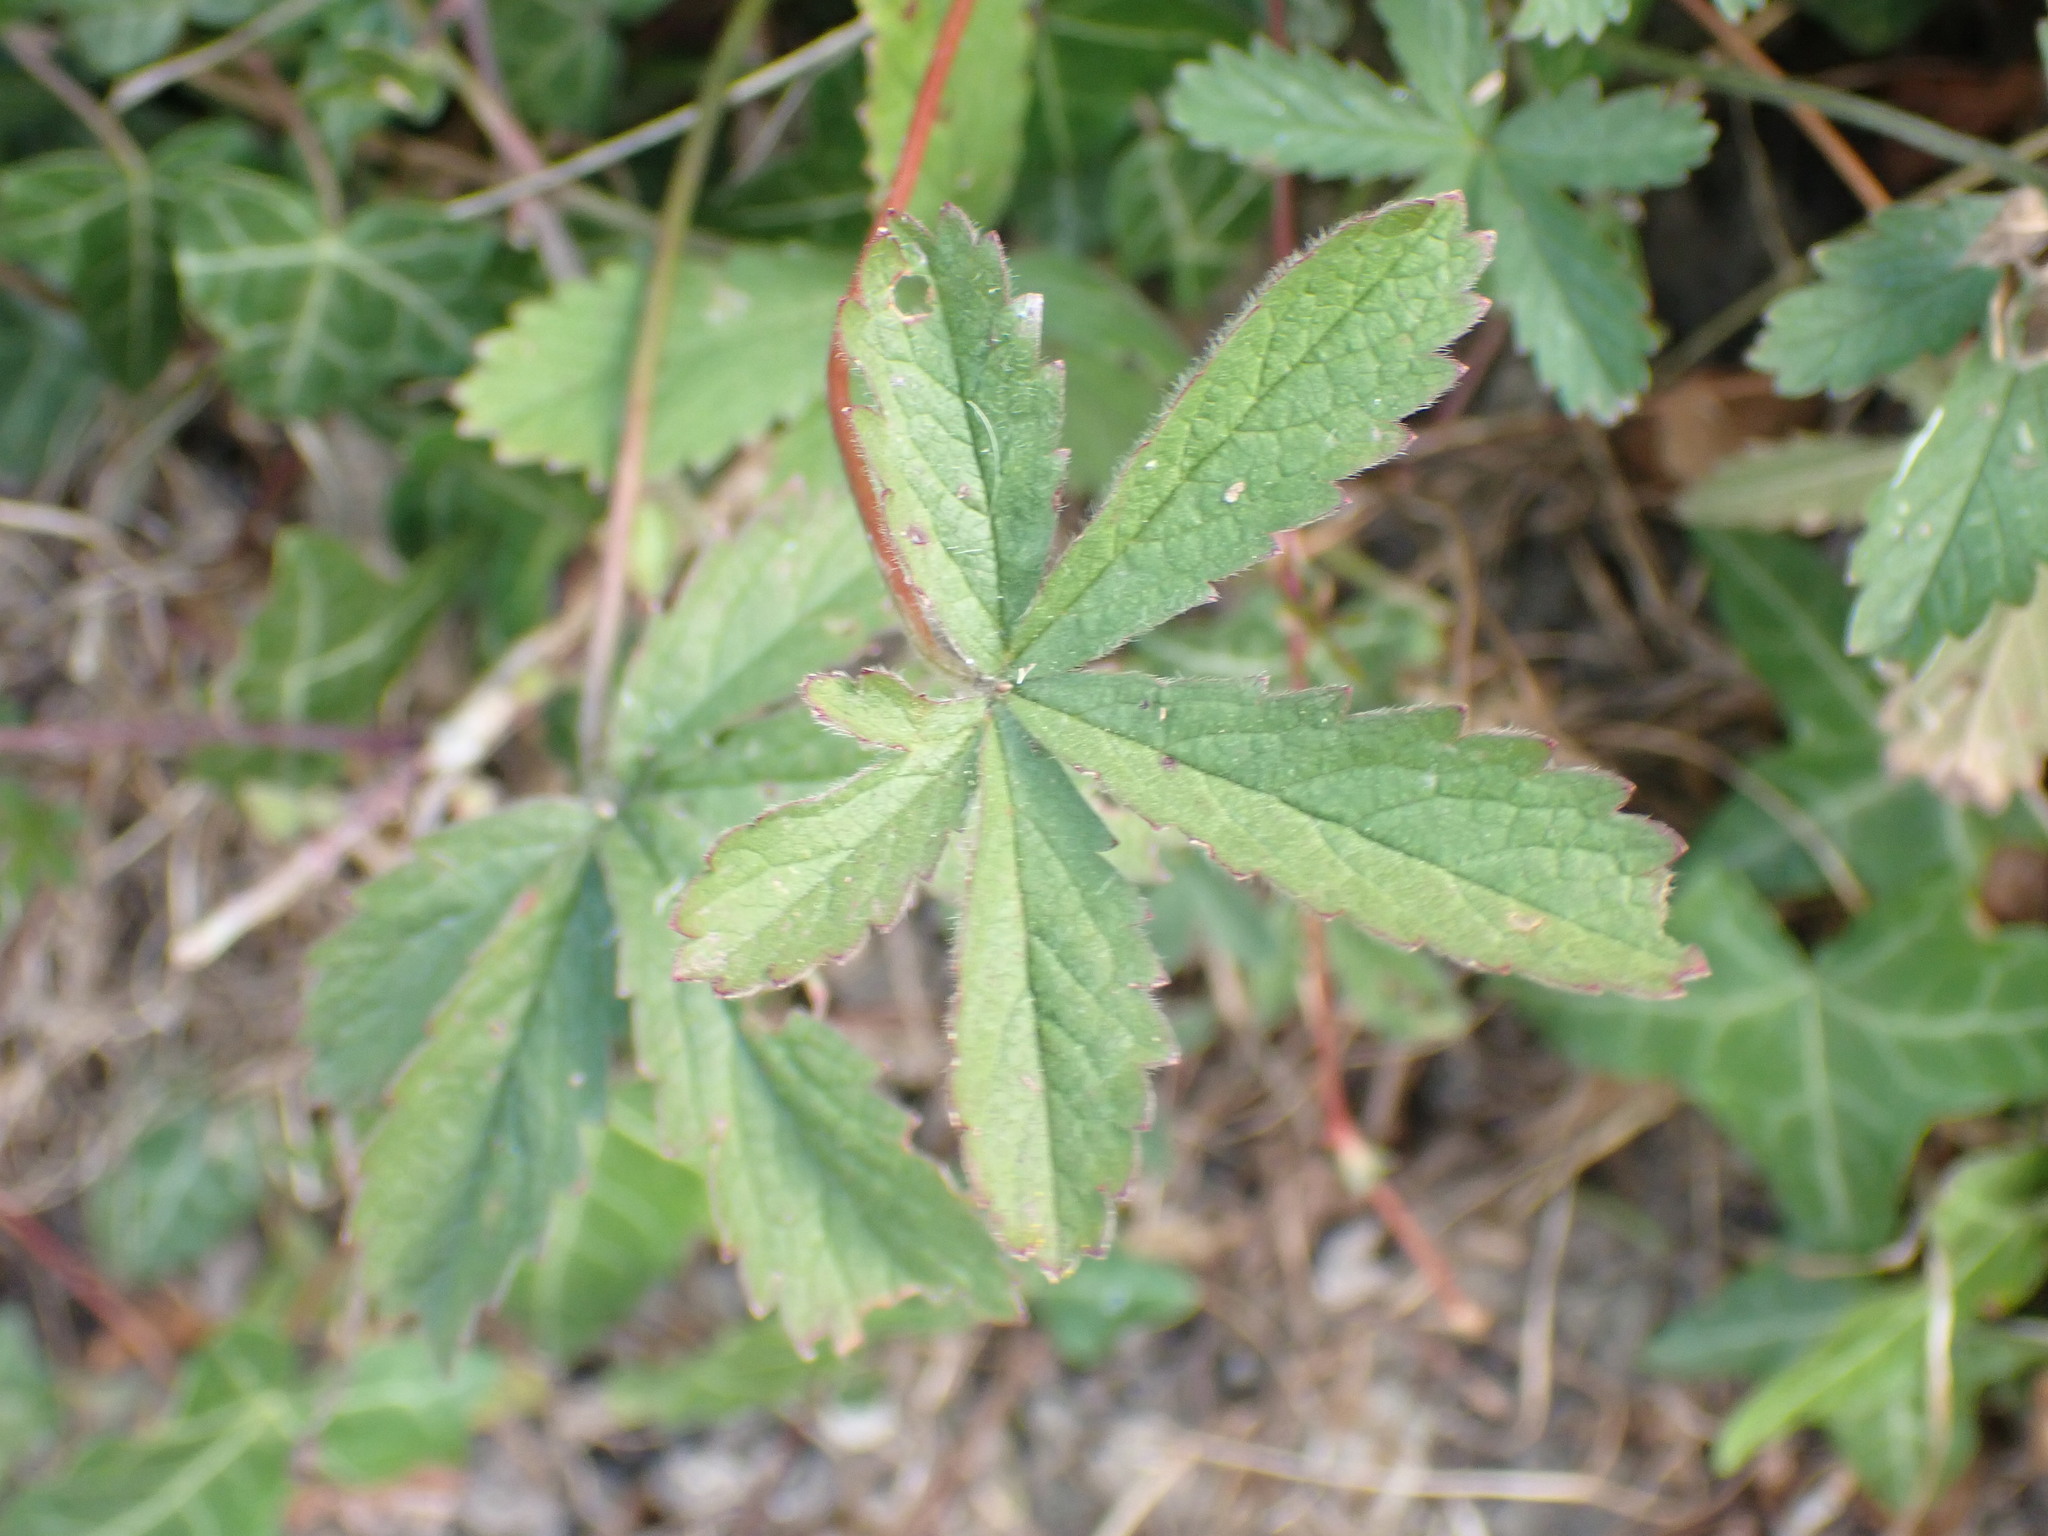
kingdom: Plantae
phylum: Tracheophyta
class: Magnoliopsida
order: Rosales
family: Rosaceae
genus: Potentilla
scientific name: Potentilla reptans
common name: Creeping cinquefoil
